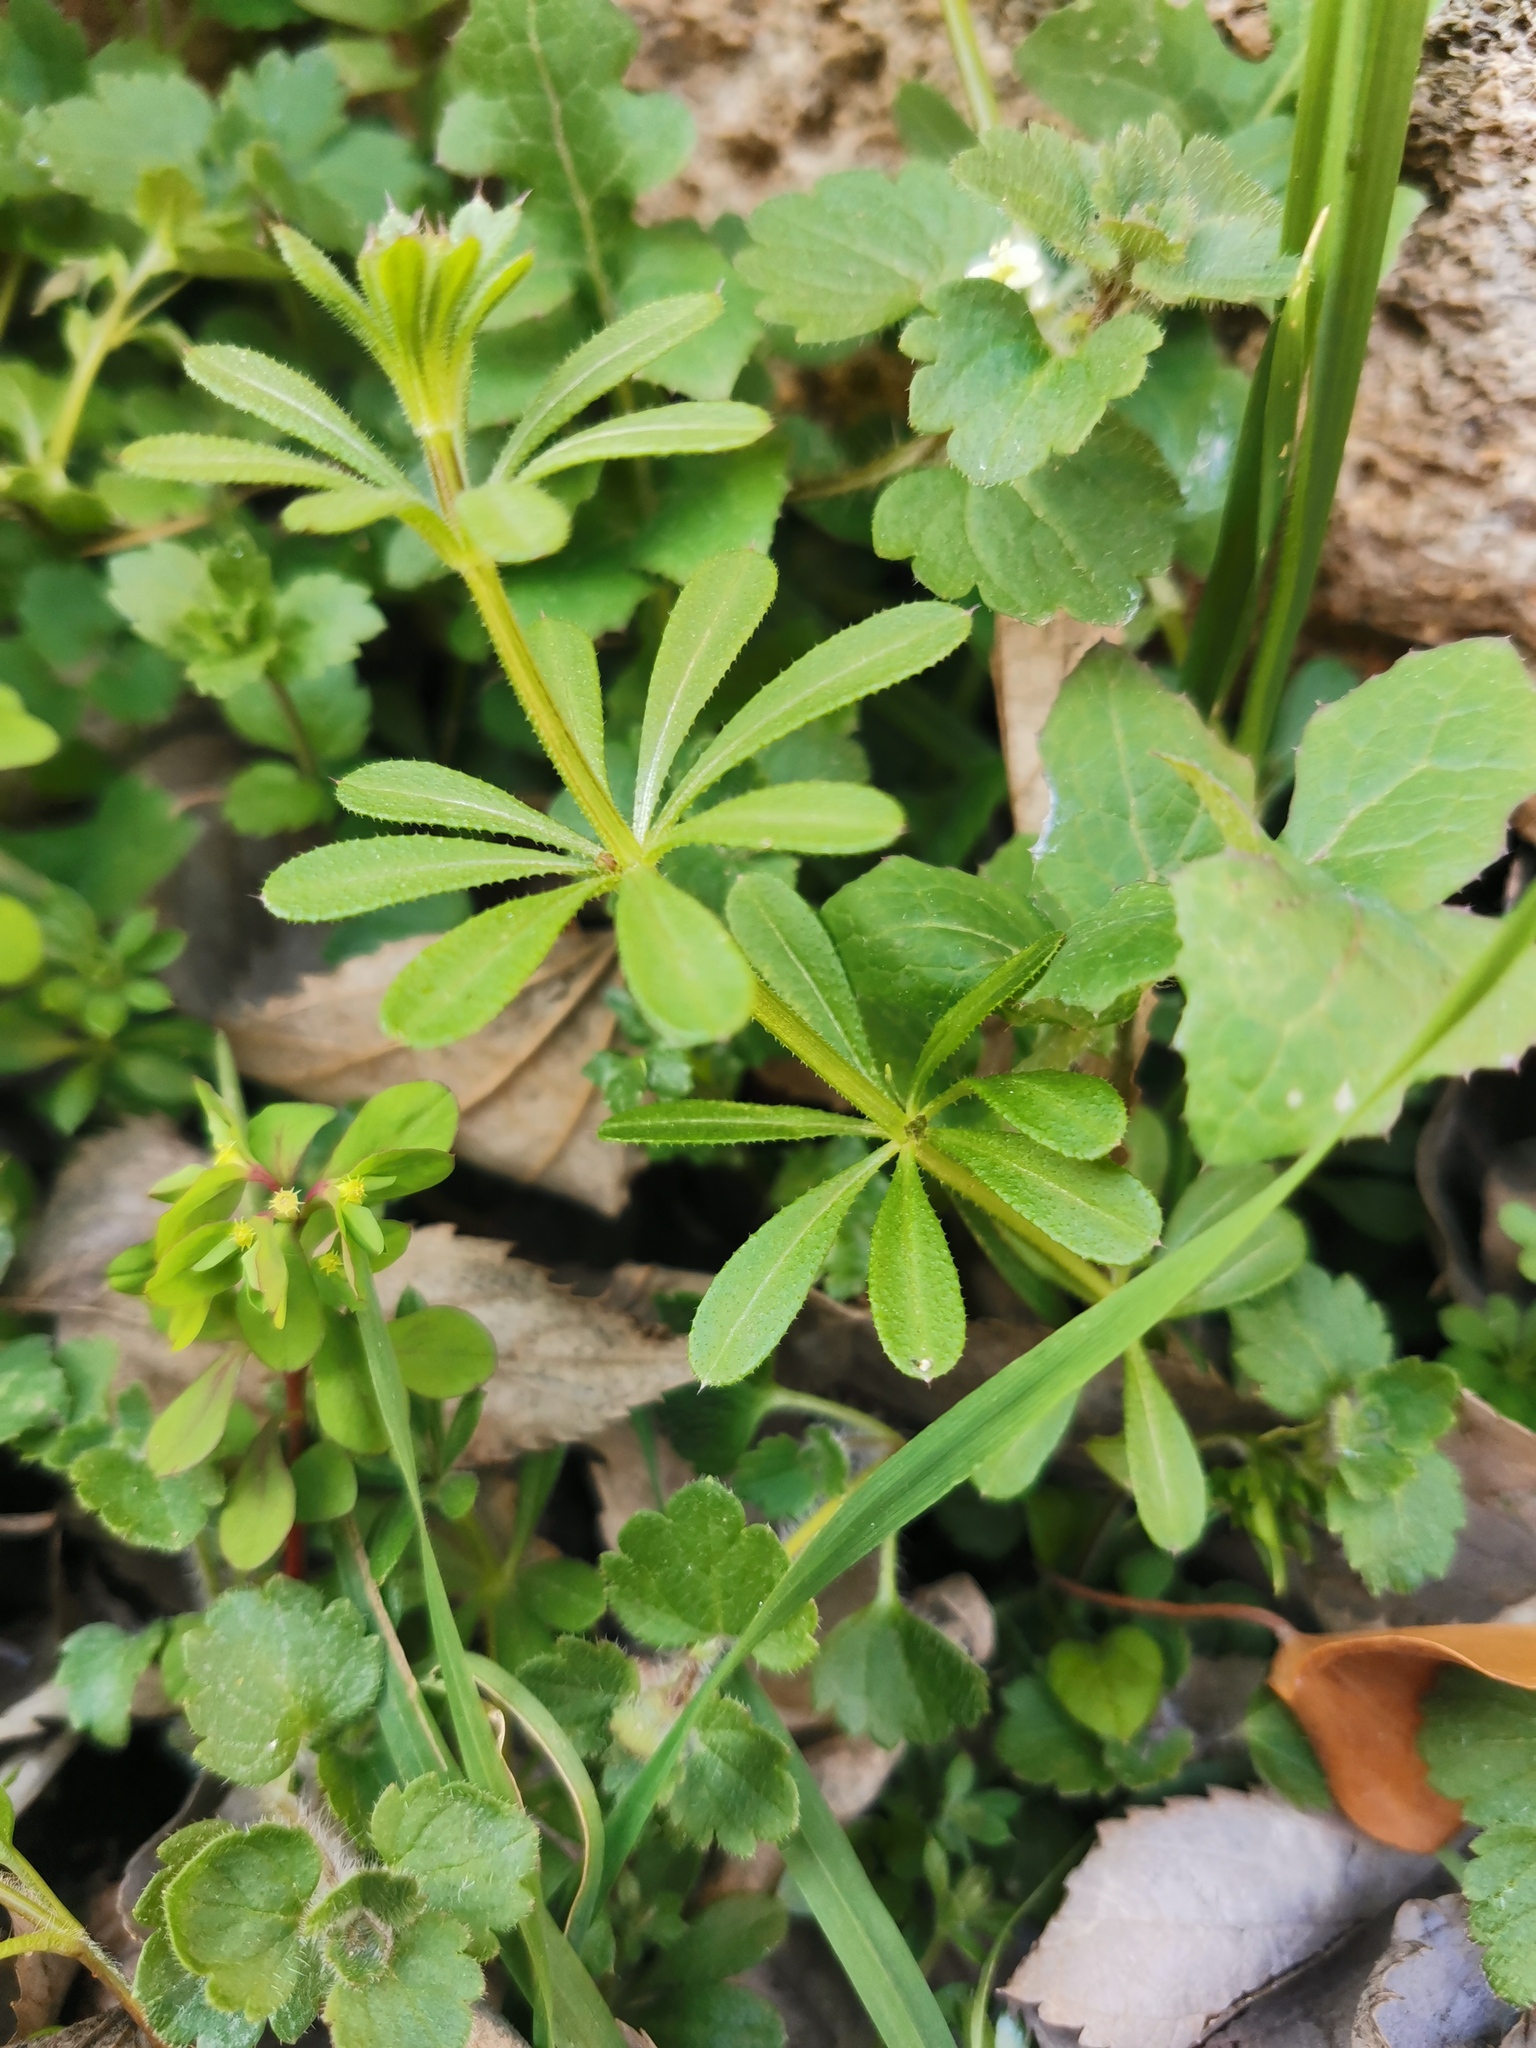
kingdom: Plantae
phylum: Tracheophyta
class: Magnoliopsida
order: Gentianales
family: Rubiaceae
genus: Galium
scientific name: Galium aparine
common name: Cleavers
